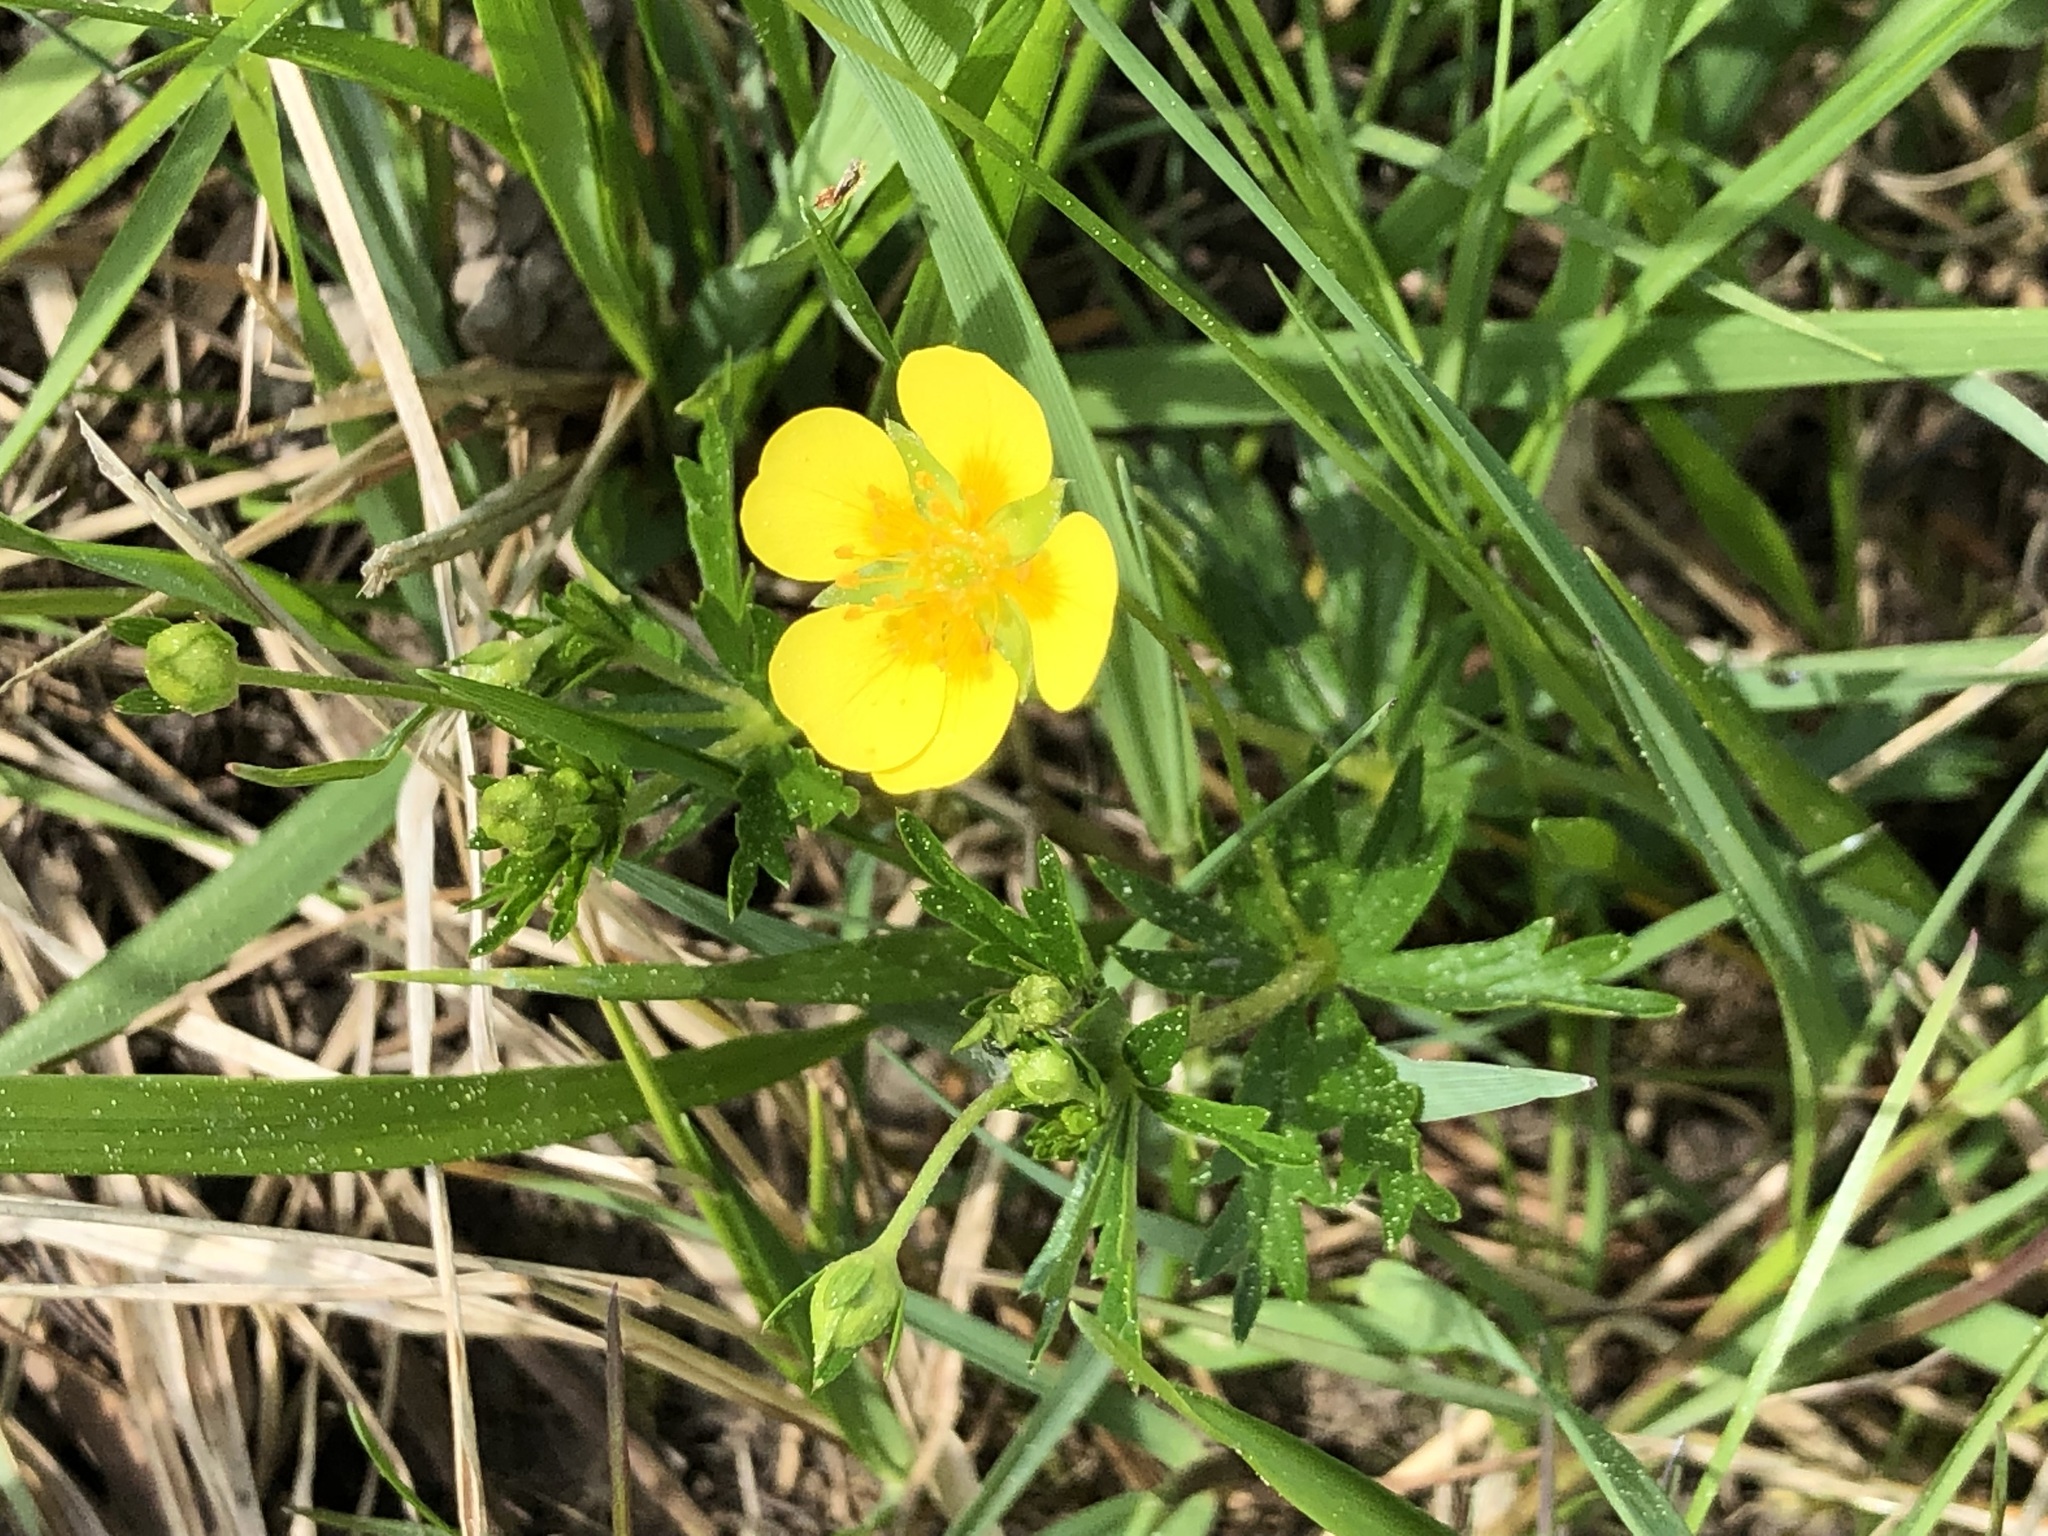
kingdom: Plantae
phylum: Tracheophyta
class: Magnoliopsida
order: Rosales
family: Rosaceae
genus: Potentilla
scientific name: Potentilla erecta
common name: Tormentil
